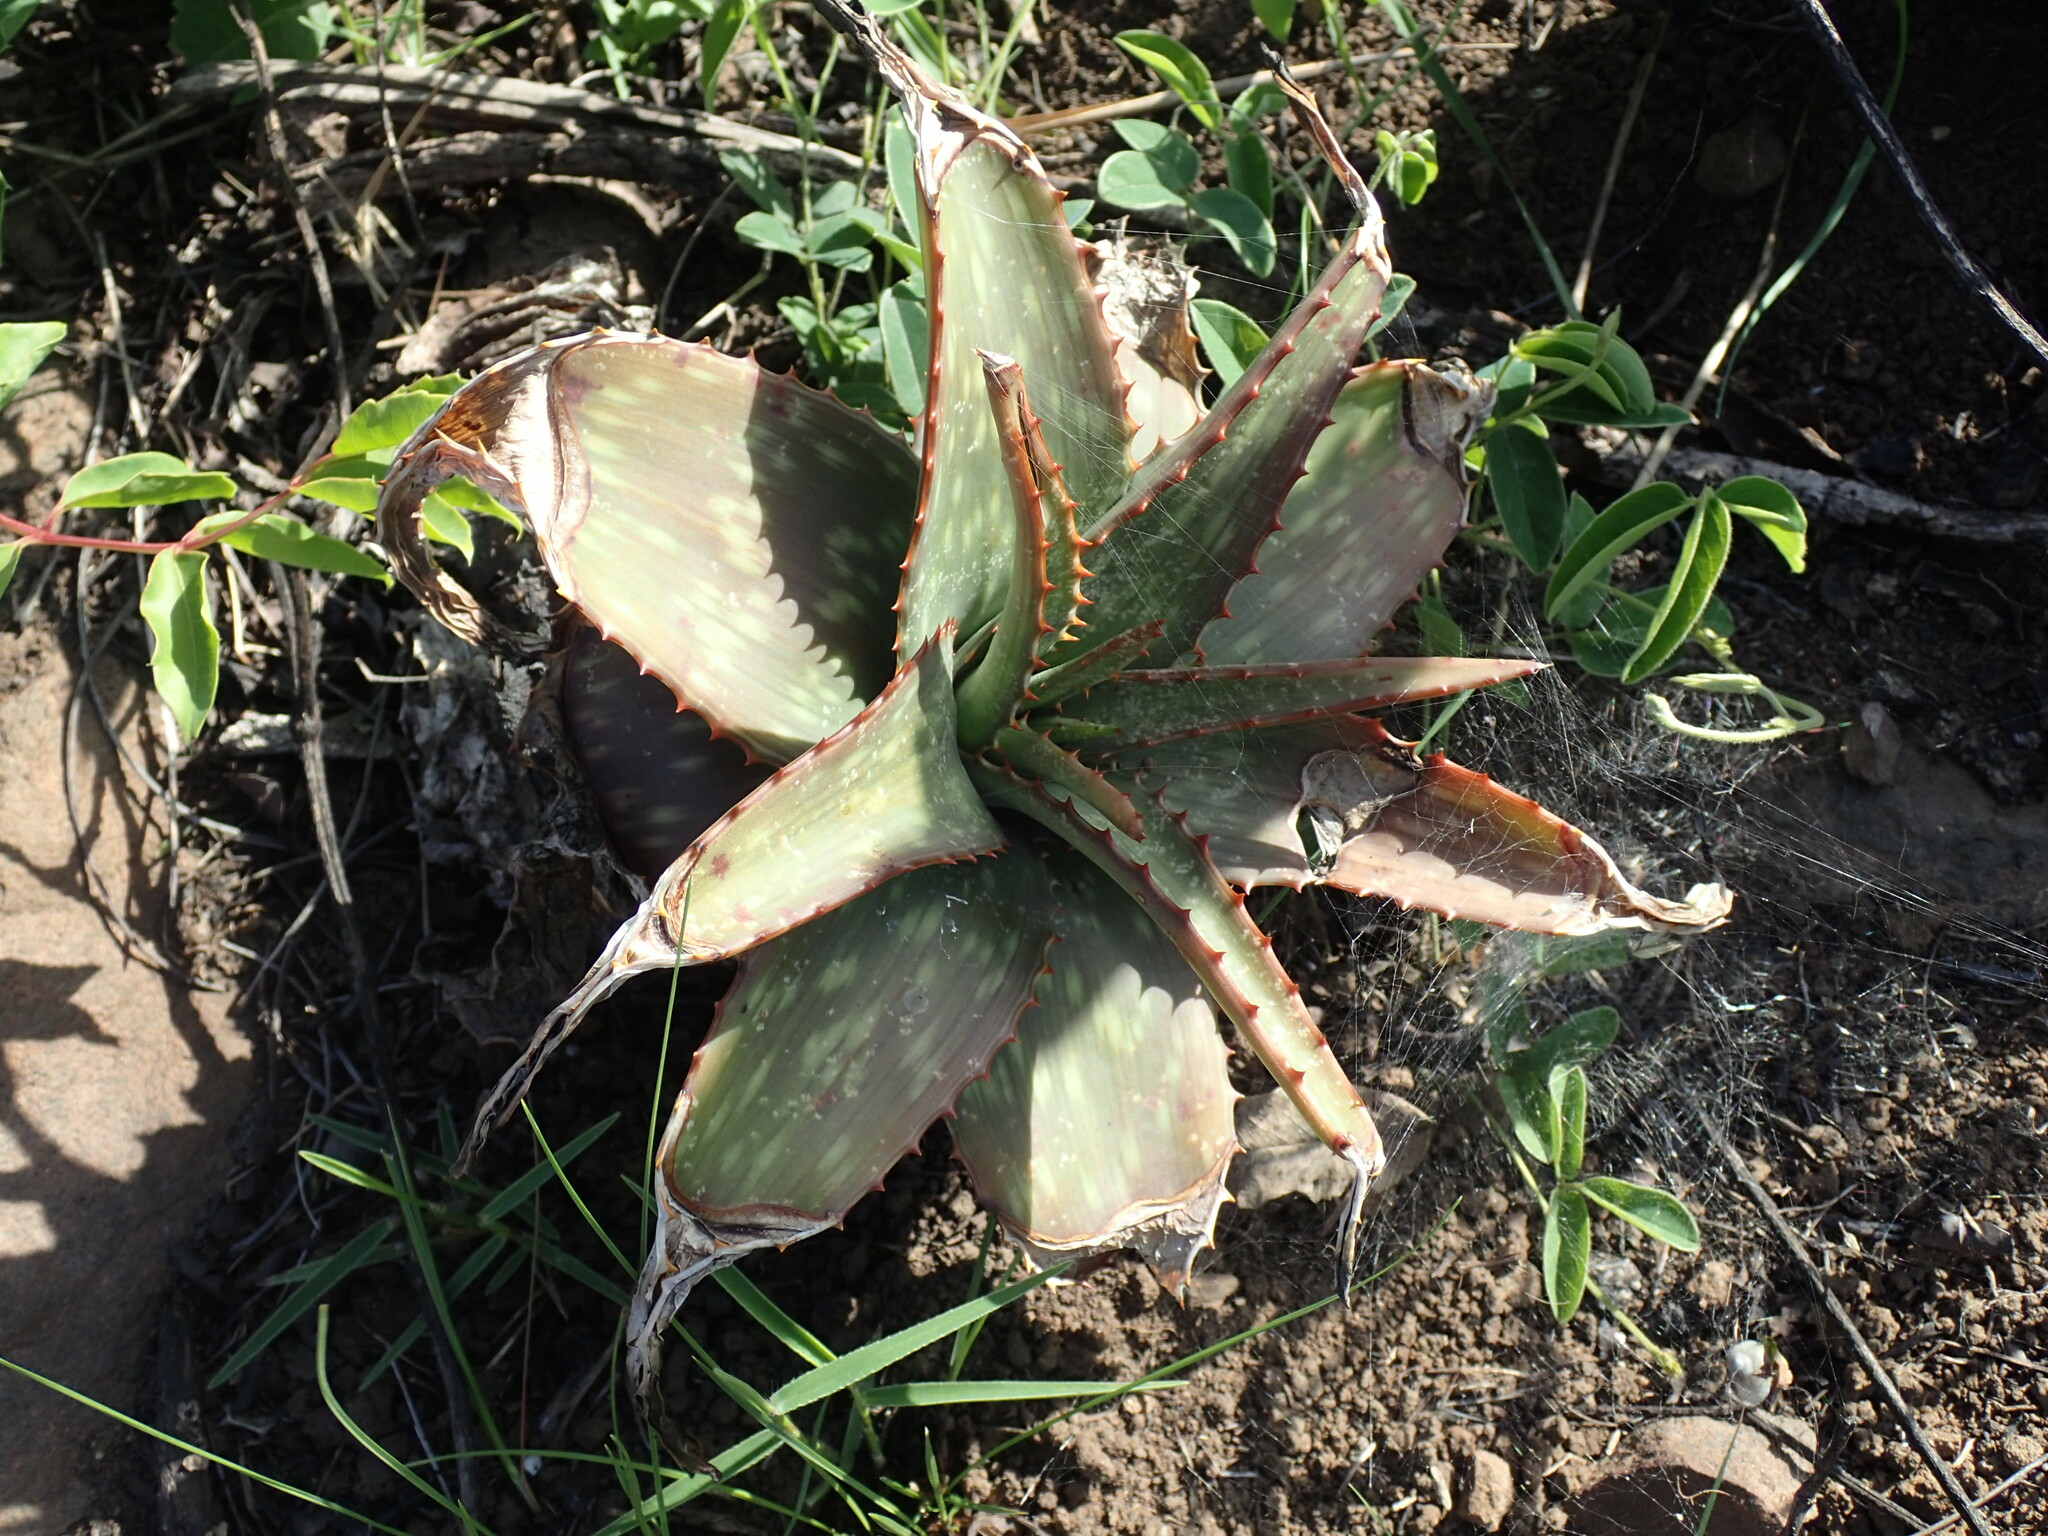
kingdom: Plantae
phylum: Tracheophyta
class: Liliopsida
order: Asparagales
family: Asphodelaceae
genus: Aloe
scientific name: Aloe maculata
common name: Broadleaf aloe
